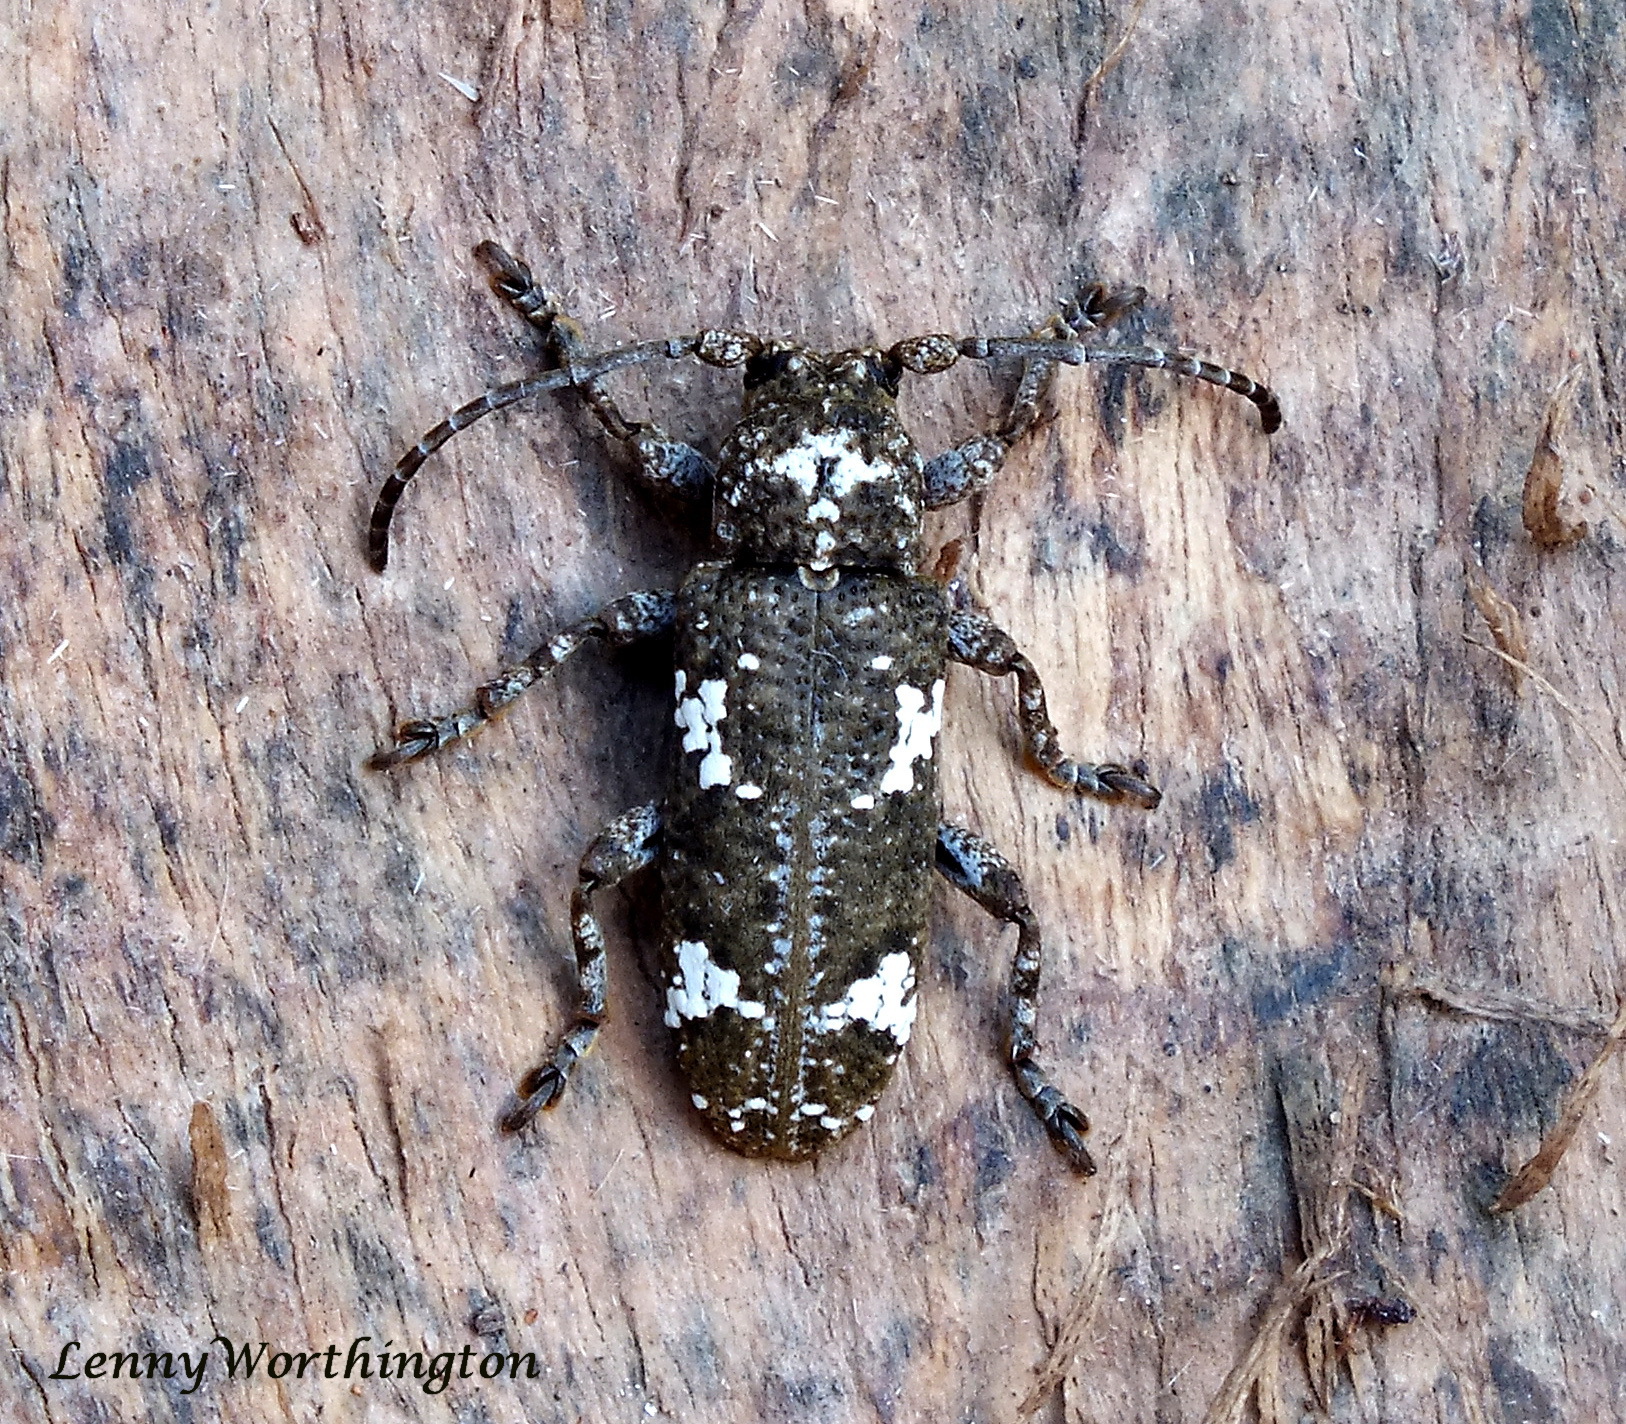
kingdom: Animalia
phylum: Arthropoda
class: Insecta
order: Coleoptera
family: Cerambycidae
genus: Apomecyna
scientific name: Apomecyna saltator
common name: Pointed gourd vine borer
